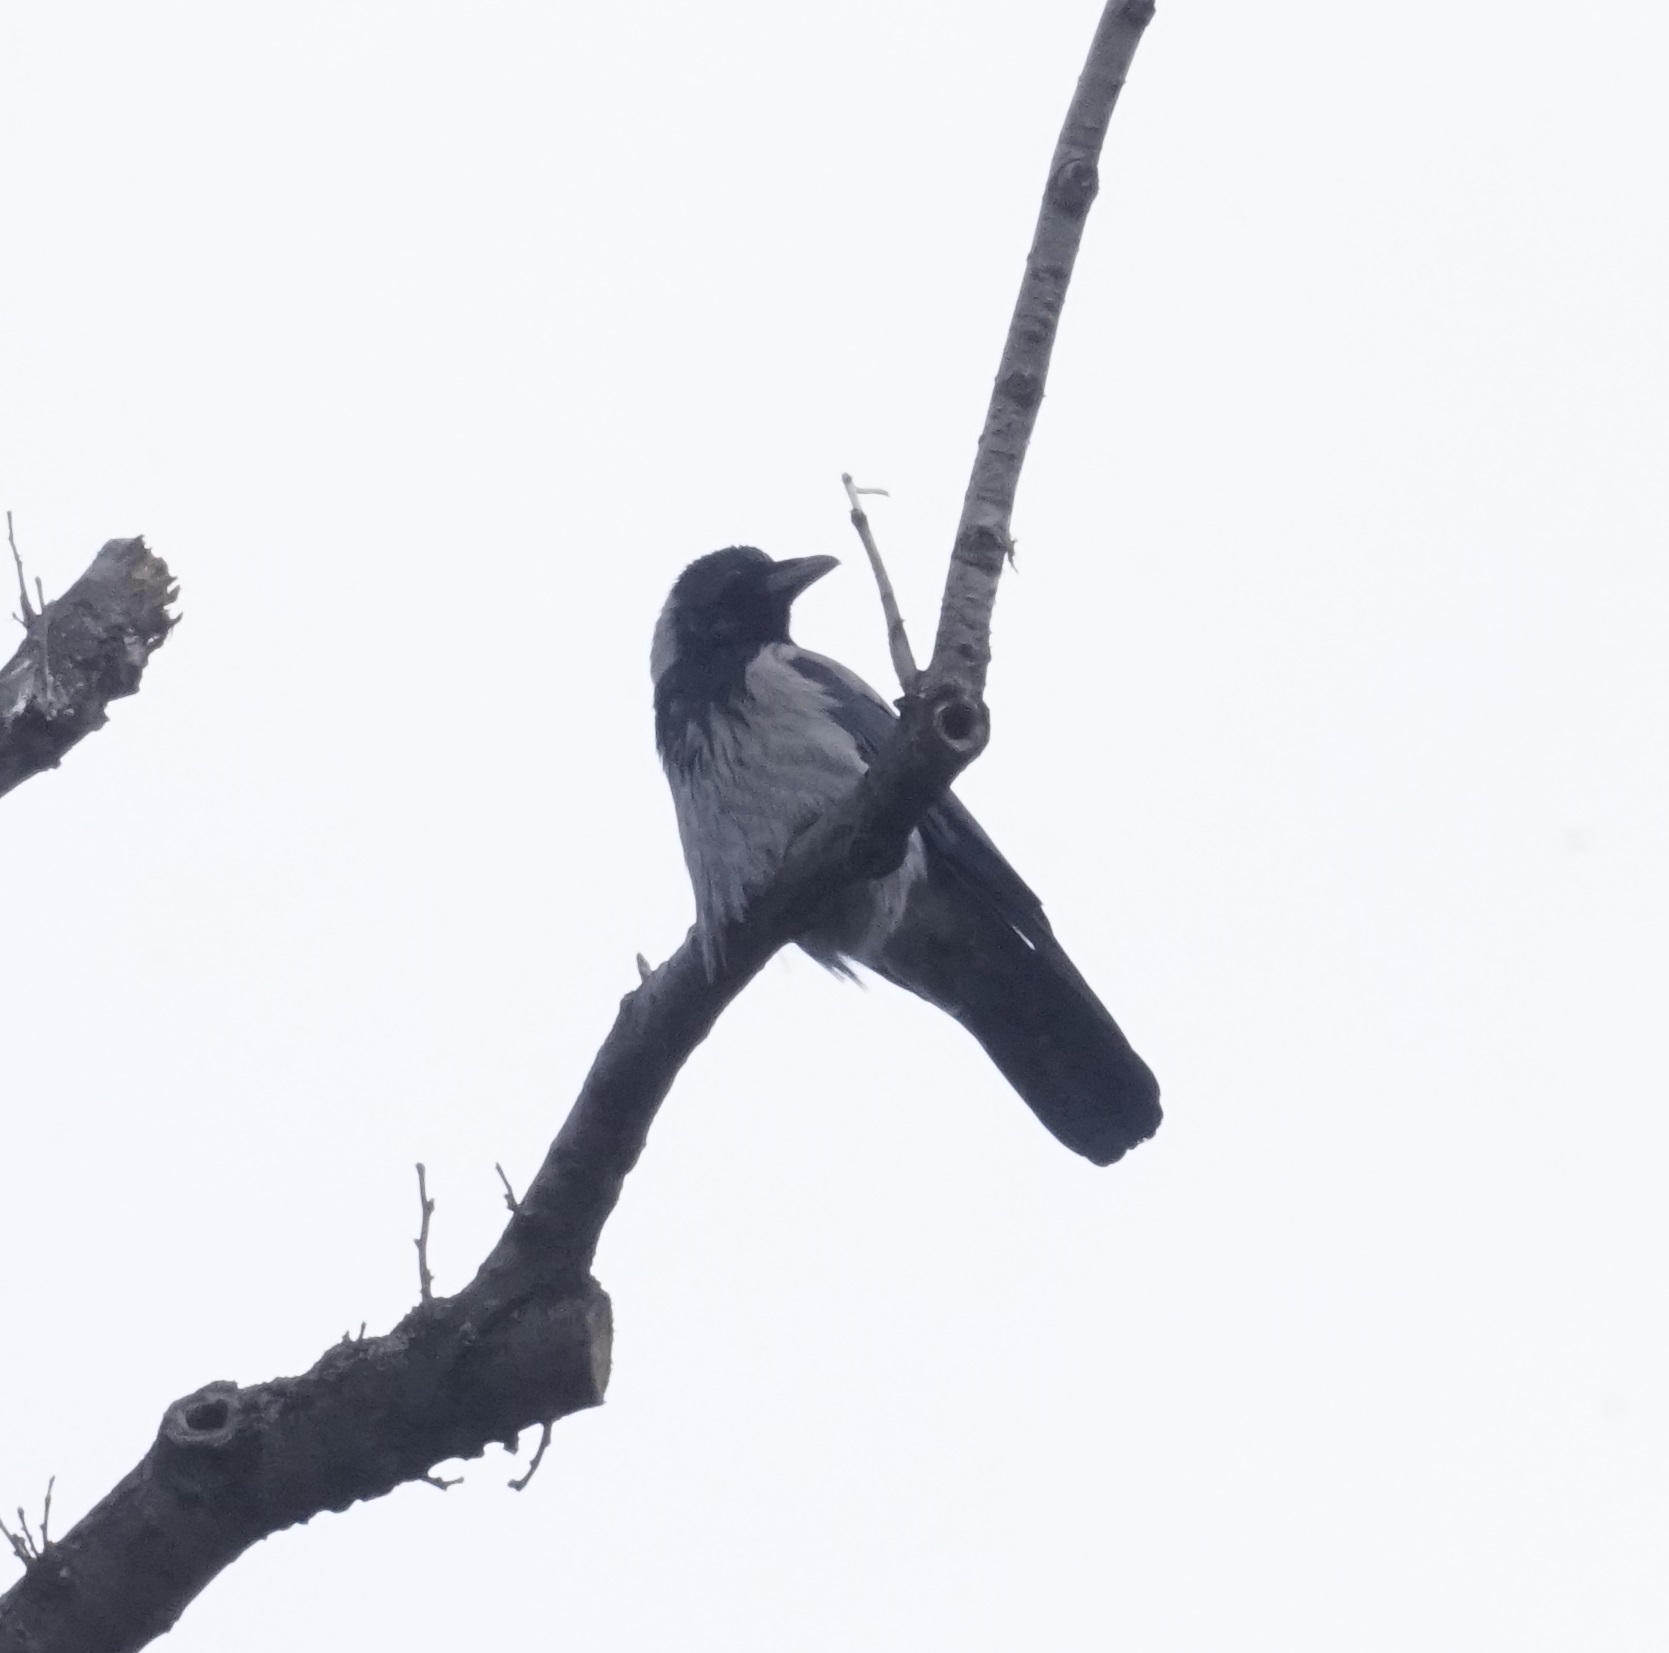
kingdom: Animalia
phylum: Chordata
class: Aves
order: Passeriformes
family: Corvidae
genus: Corvus
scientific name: Corvus cornix
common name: Hooded crow
